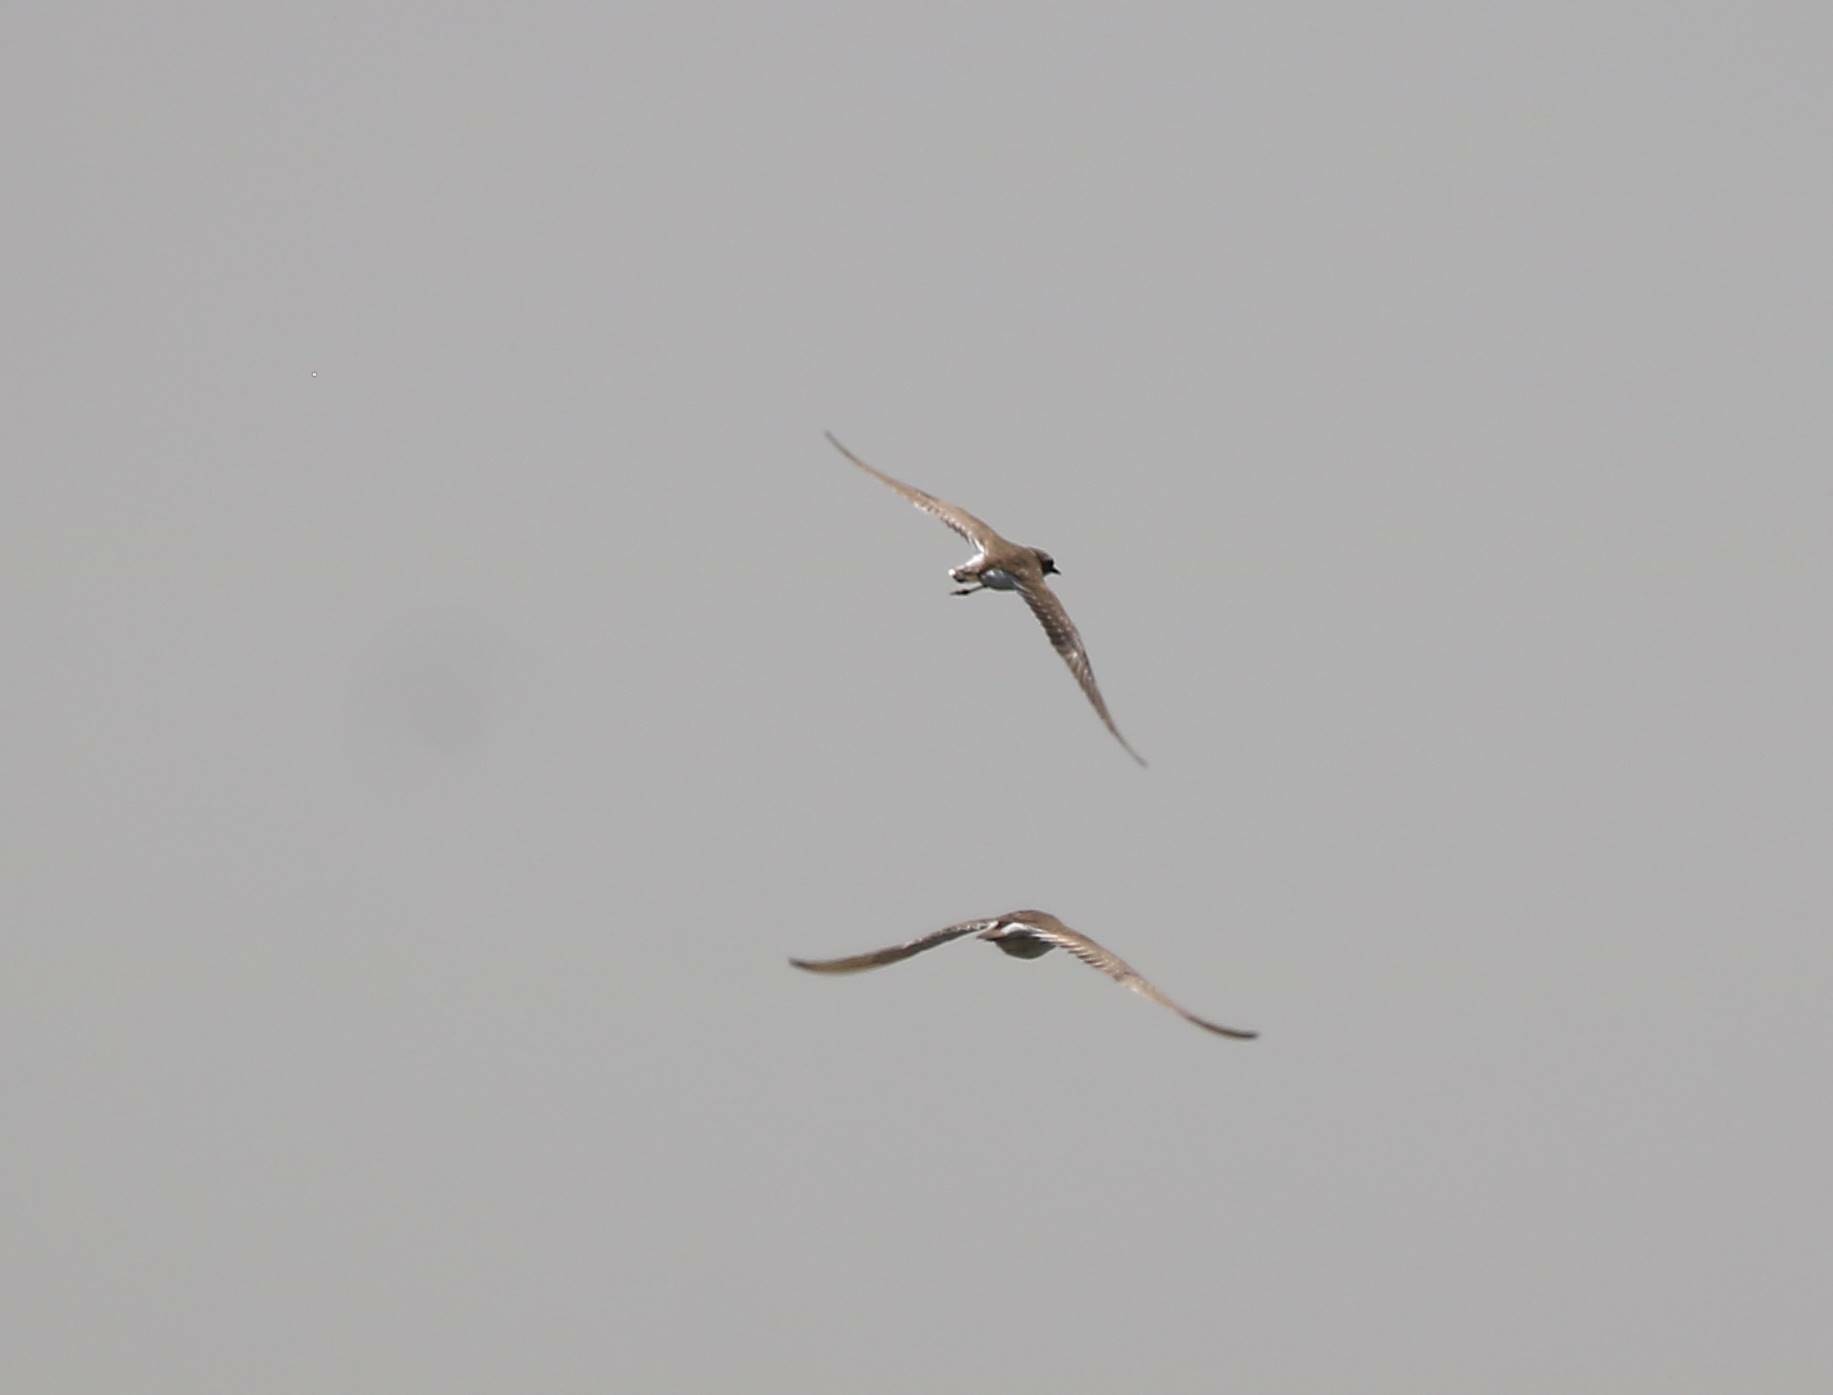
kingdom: Animalia
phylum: Chordata
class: Aves
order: Charadriiformes
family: Charadriidae
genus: Charadrius
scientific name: Charadrius dubius
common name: Little ringed plover
